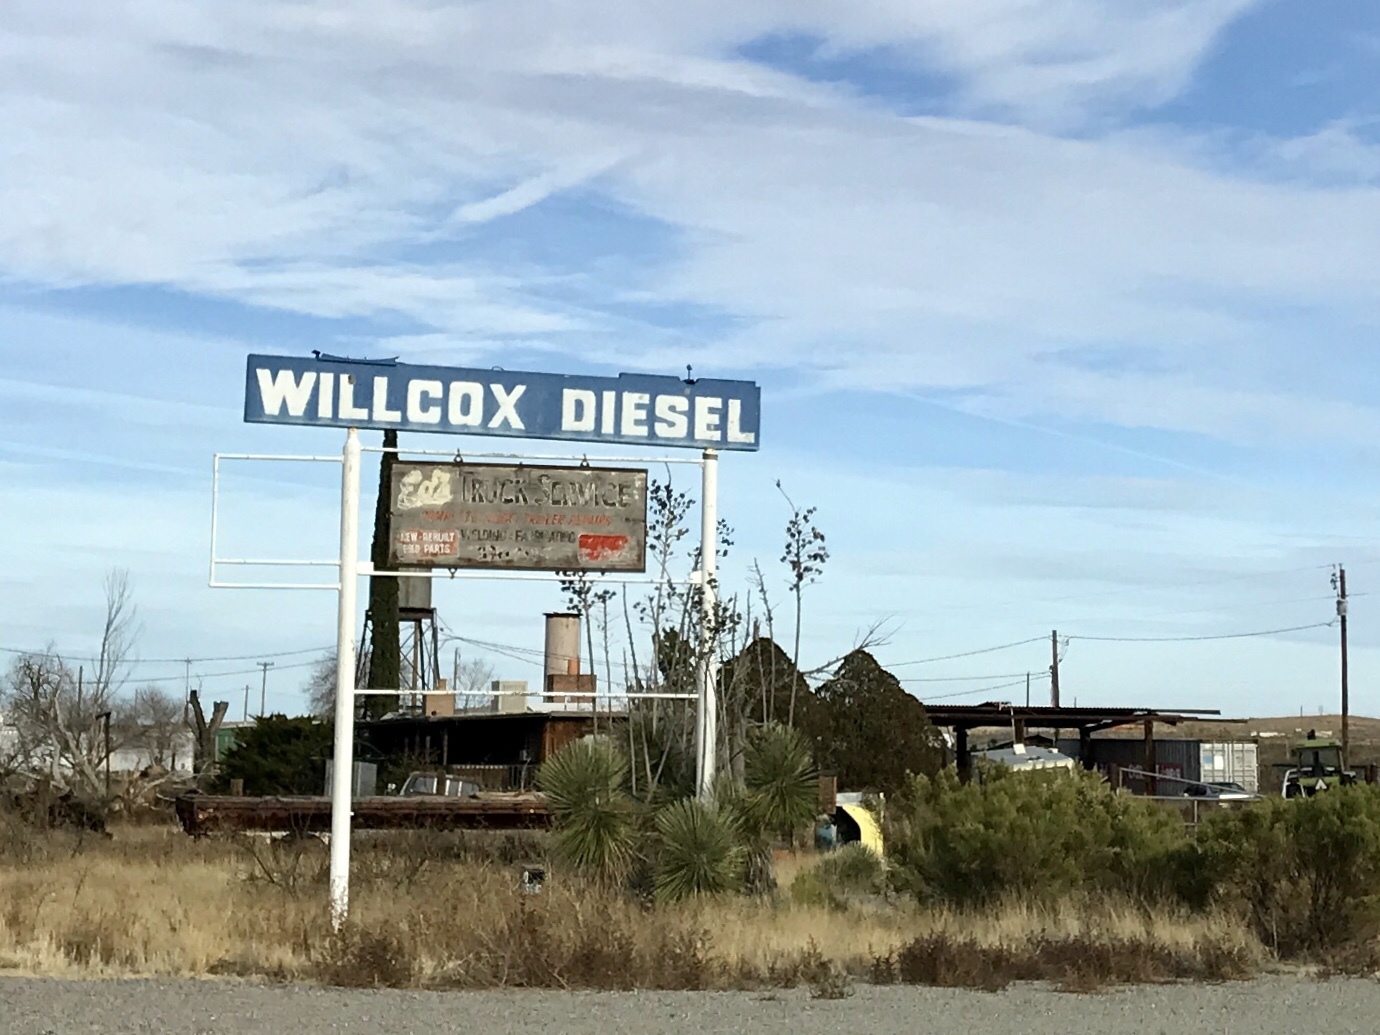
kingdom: Plantae
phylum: Tracheophyta
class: Liliopsida
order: Asparagales
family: Asparagaceae
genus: Yucca
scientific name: Yucca elata
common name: Palmella
